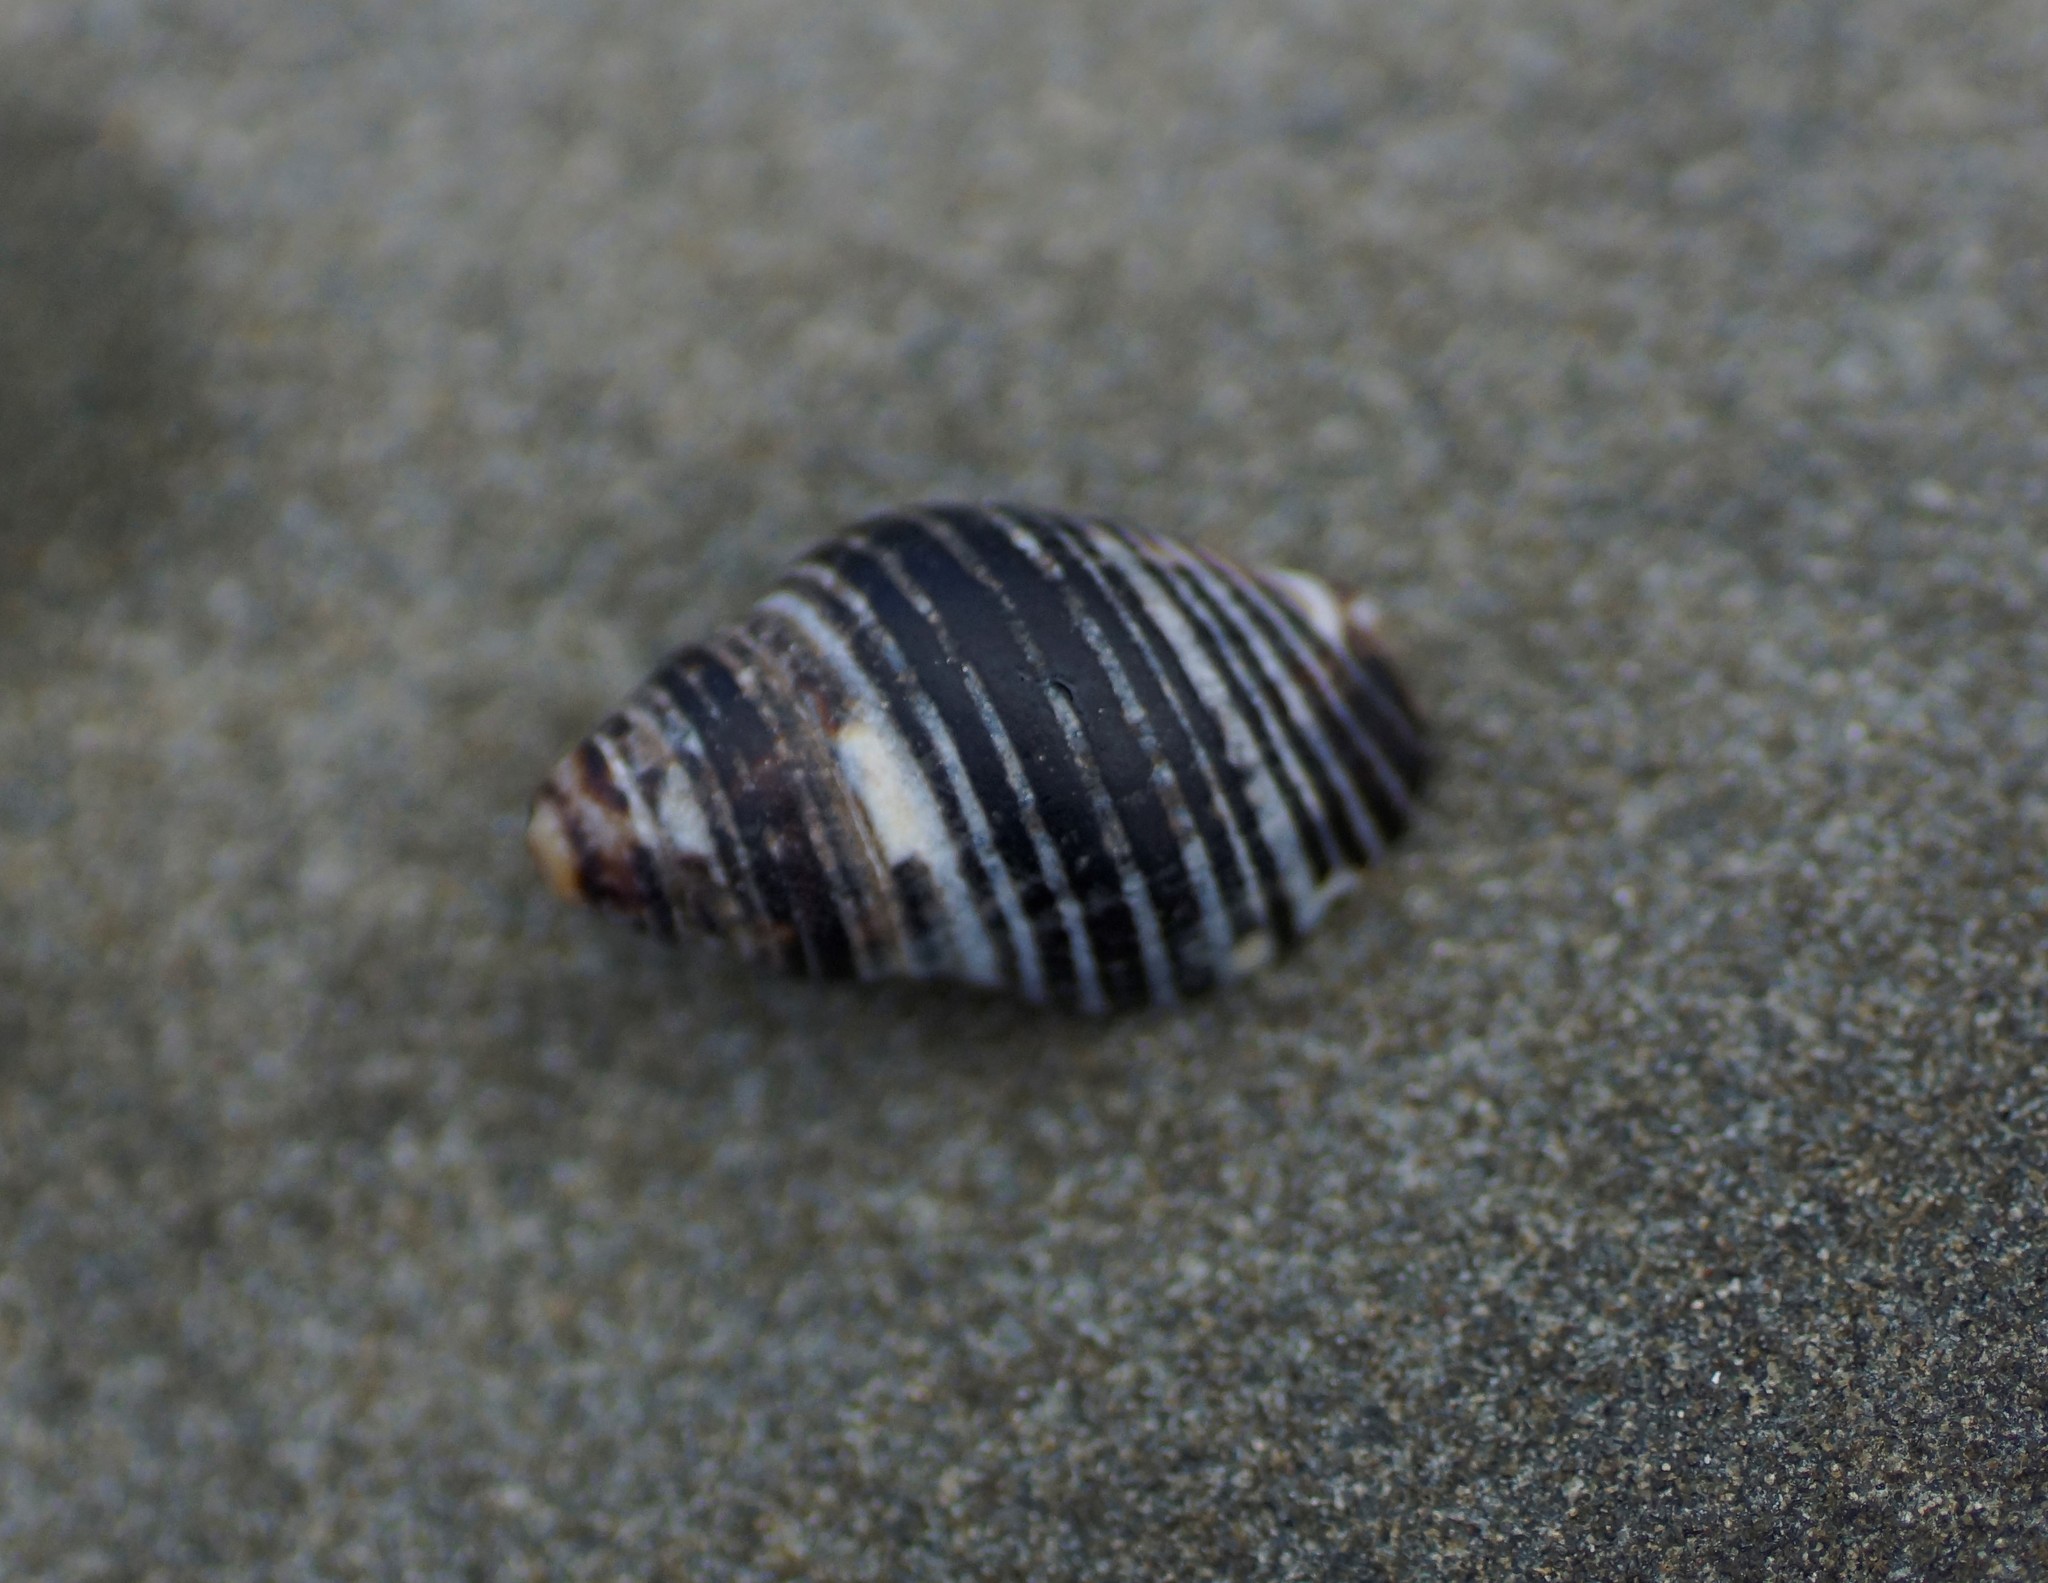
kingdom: Animalia
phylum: Mollusca
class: Gastropoda
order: Neogastropoda
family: Cominellidae
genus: Cominella
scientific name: Cominella lineolata
